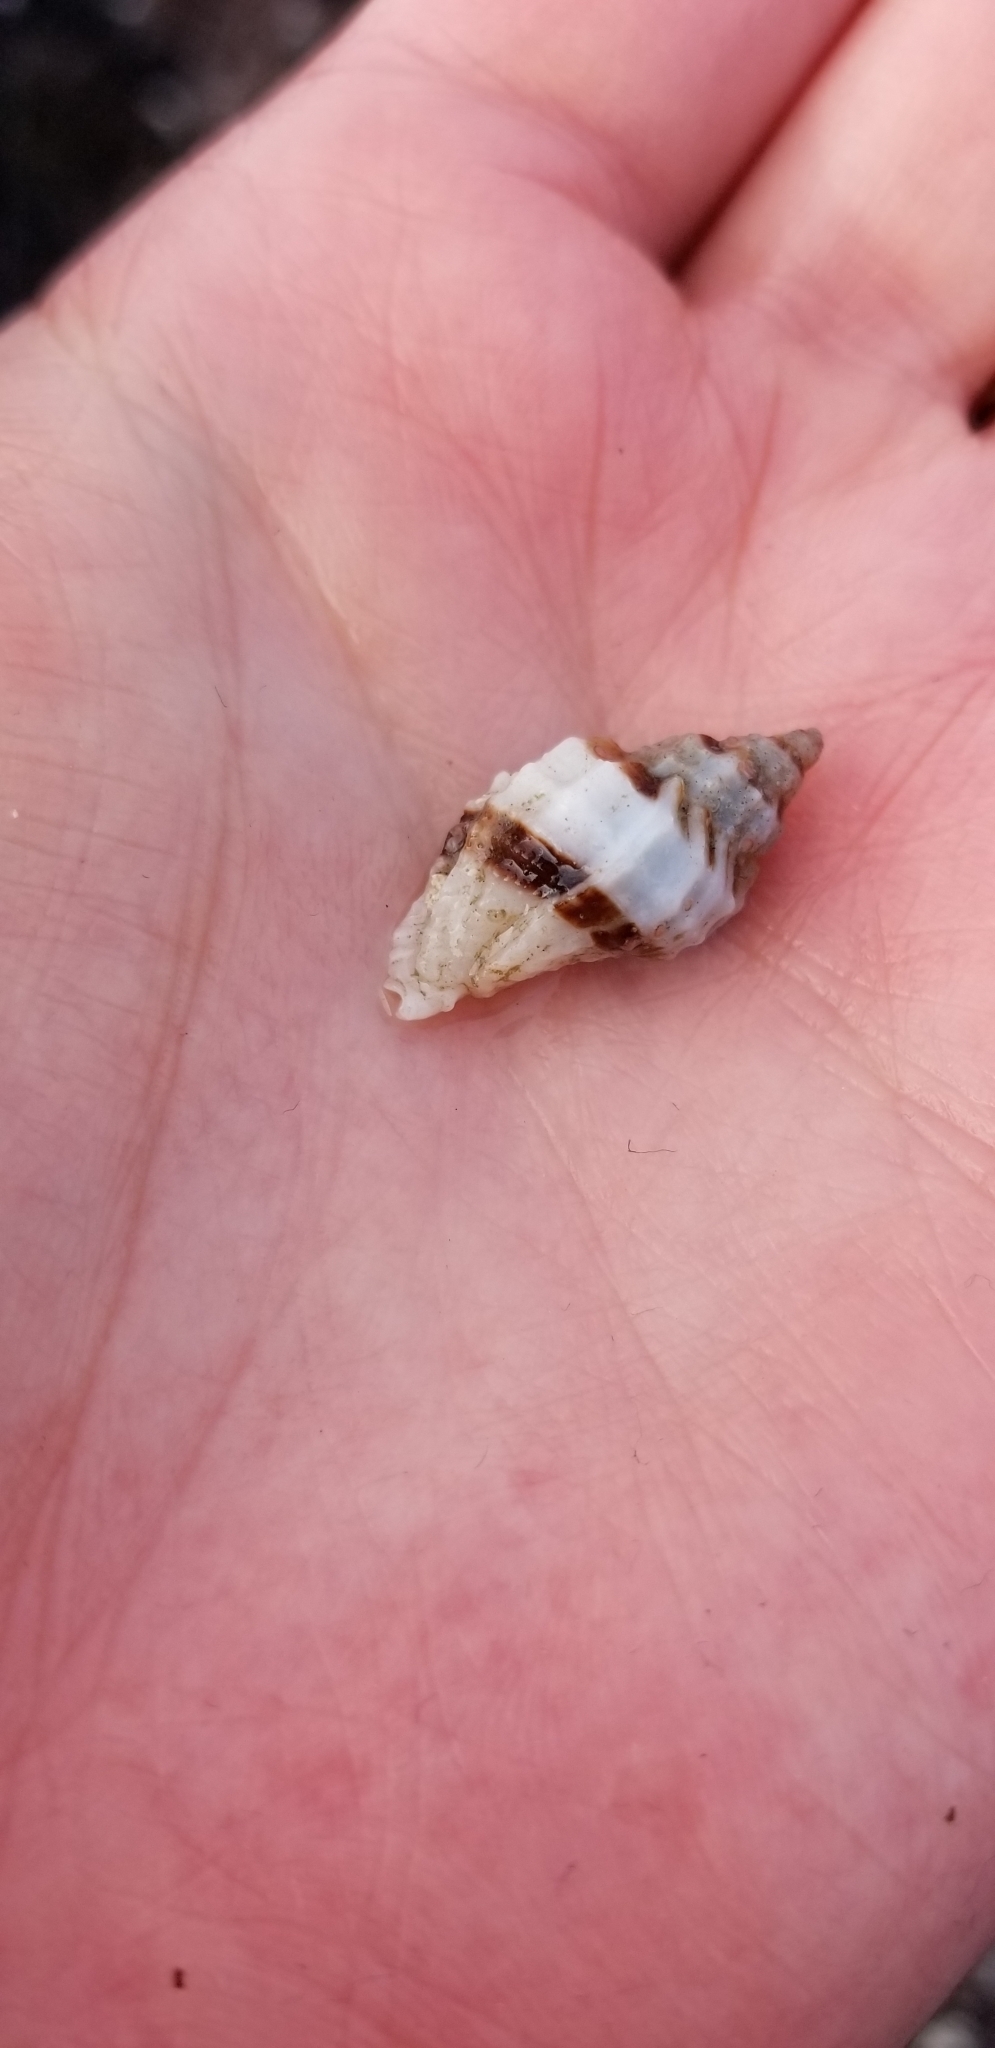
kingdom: Animalia
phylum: Mollusca
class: Gastropoda
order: Neogastropoda
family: Muricidae
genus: Ceratostoma
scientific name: Ceratostoma nuttalli
